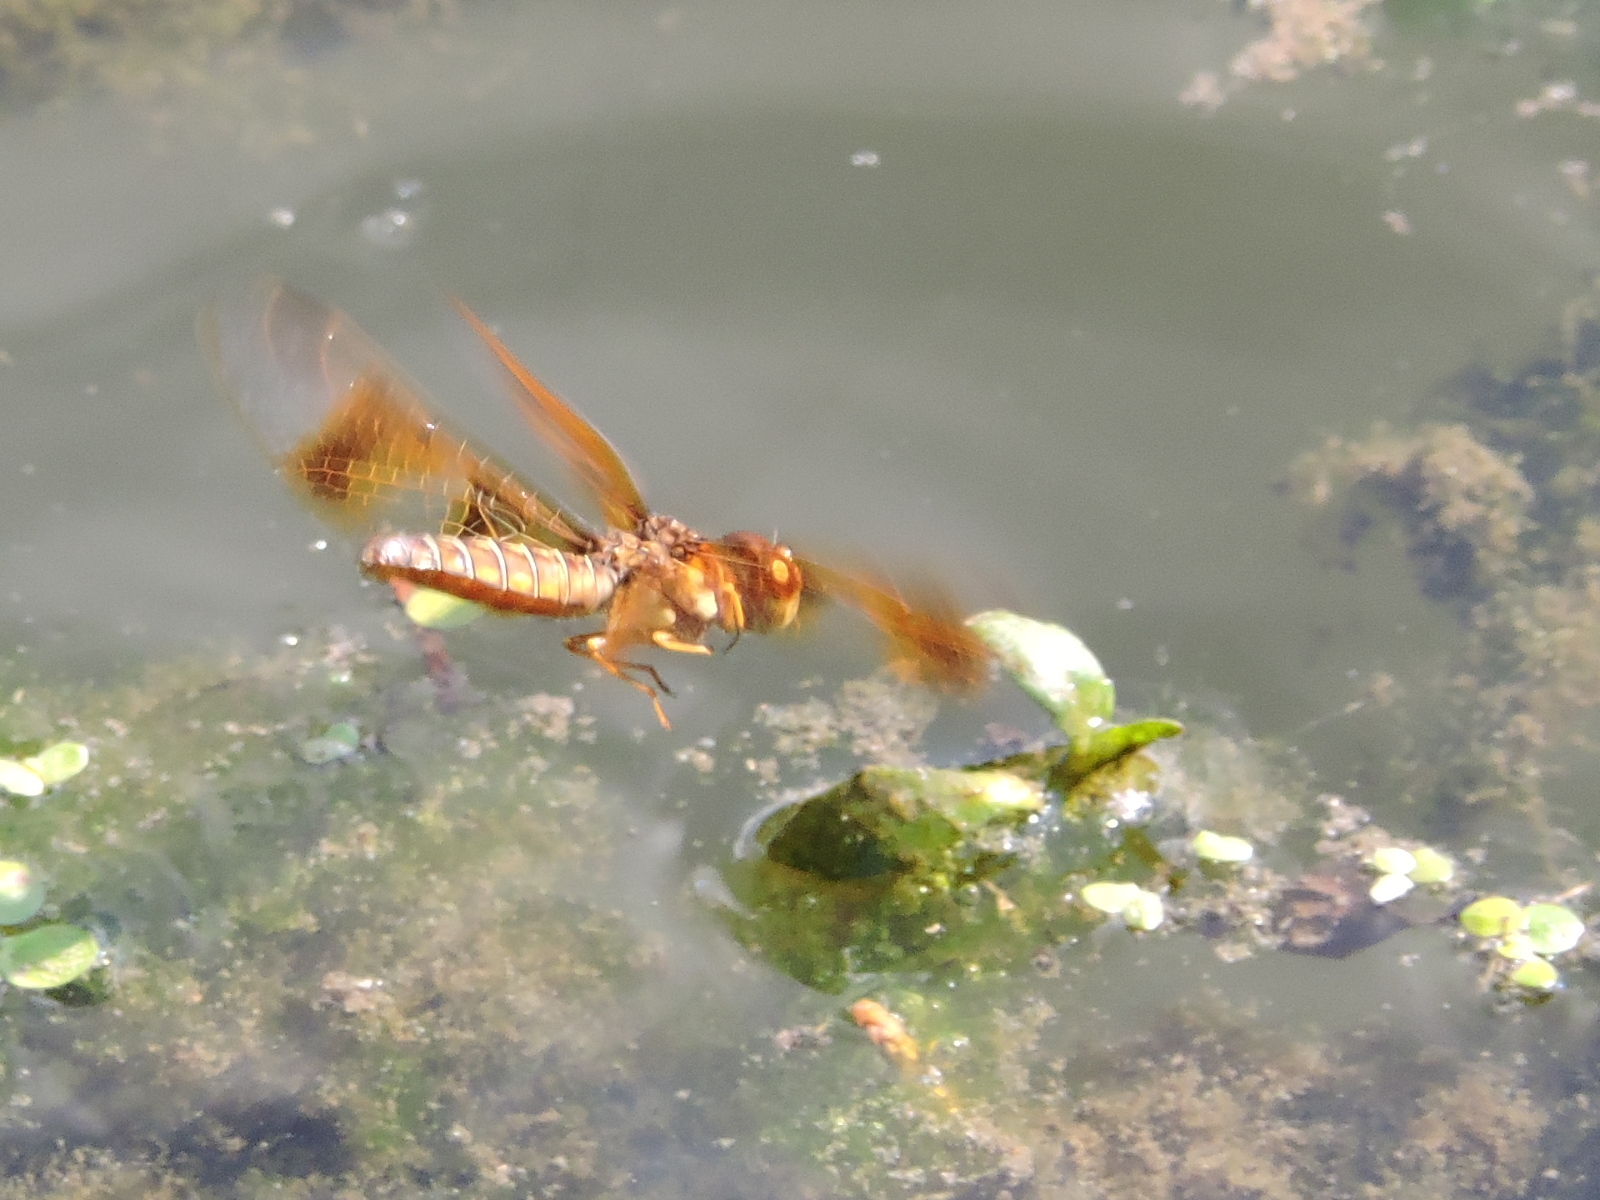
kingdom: Animalia
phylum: Arthropoda
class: Insecta
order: Odonata
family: Libellulidae
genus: Perithemis
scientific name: Perithemis tenera
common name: Eastern amberwing
